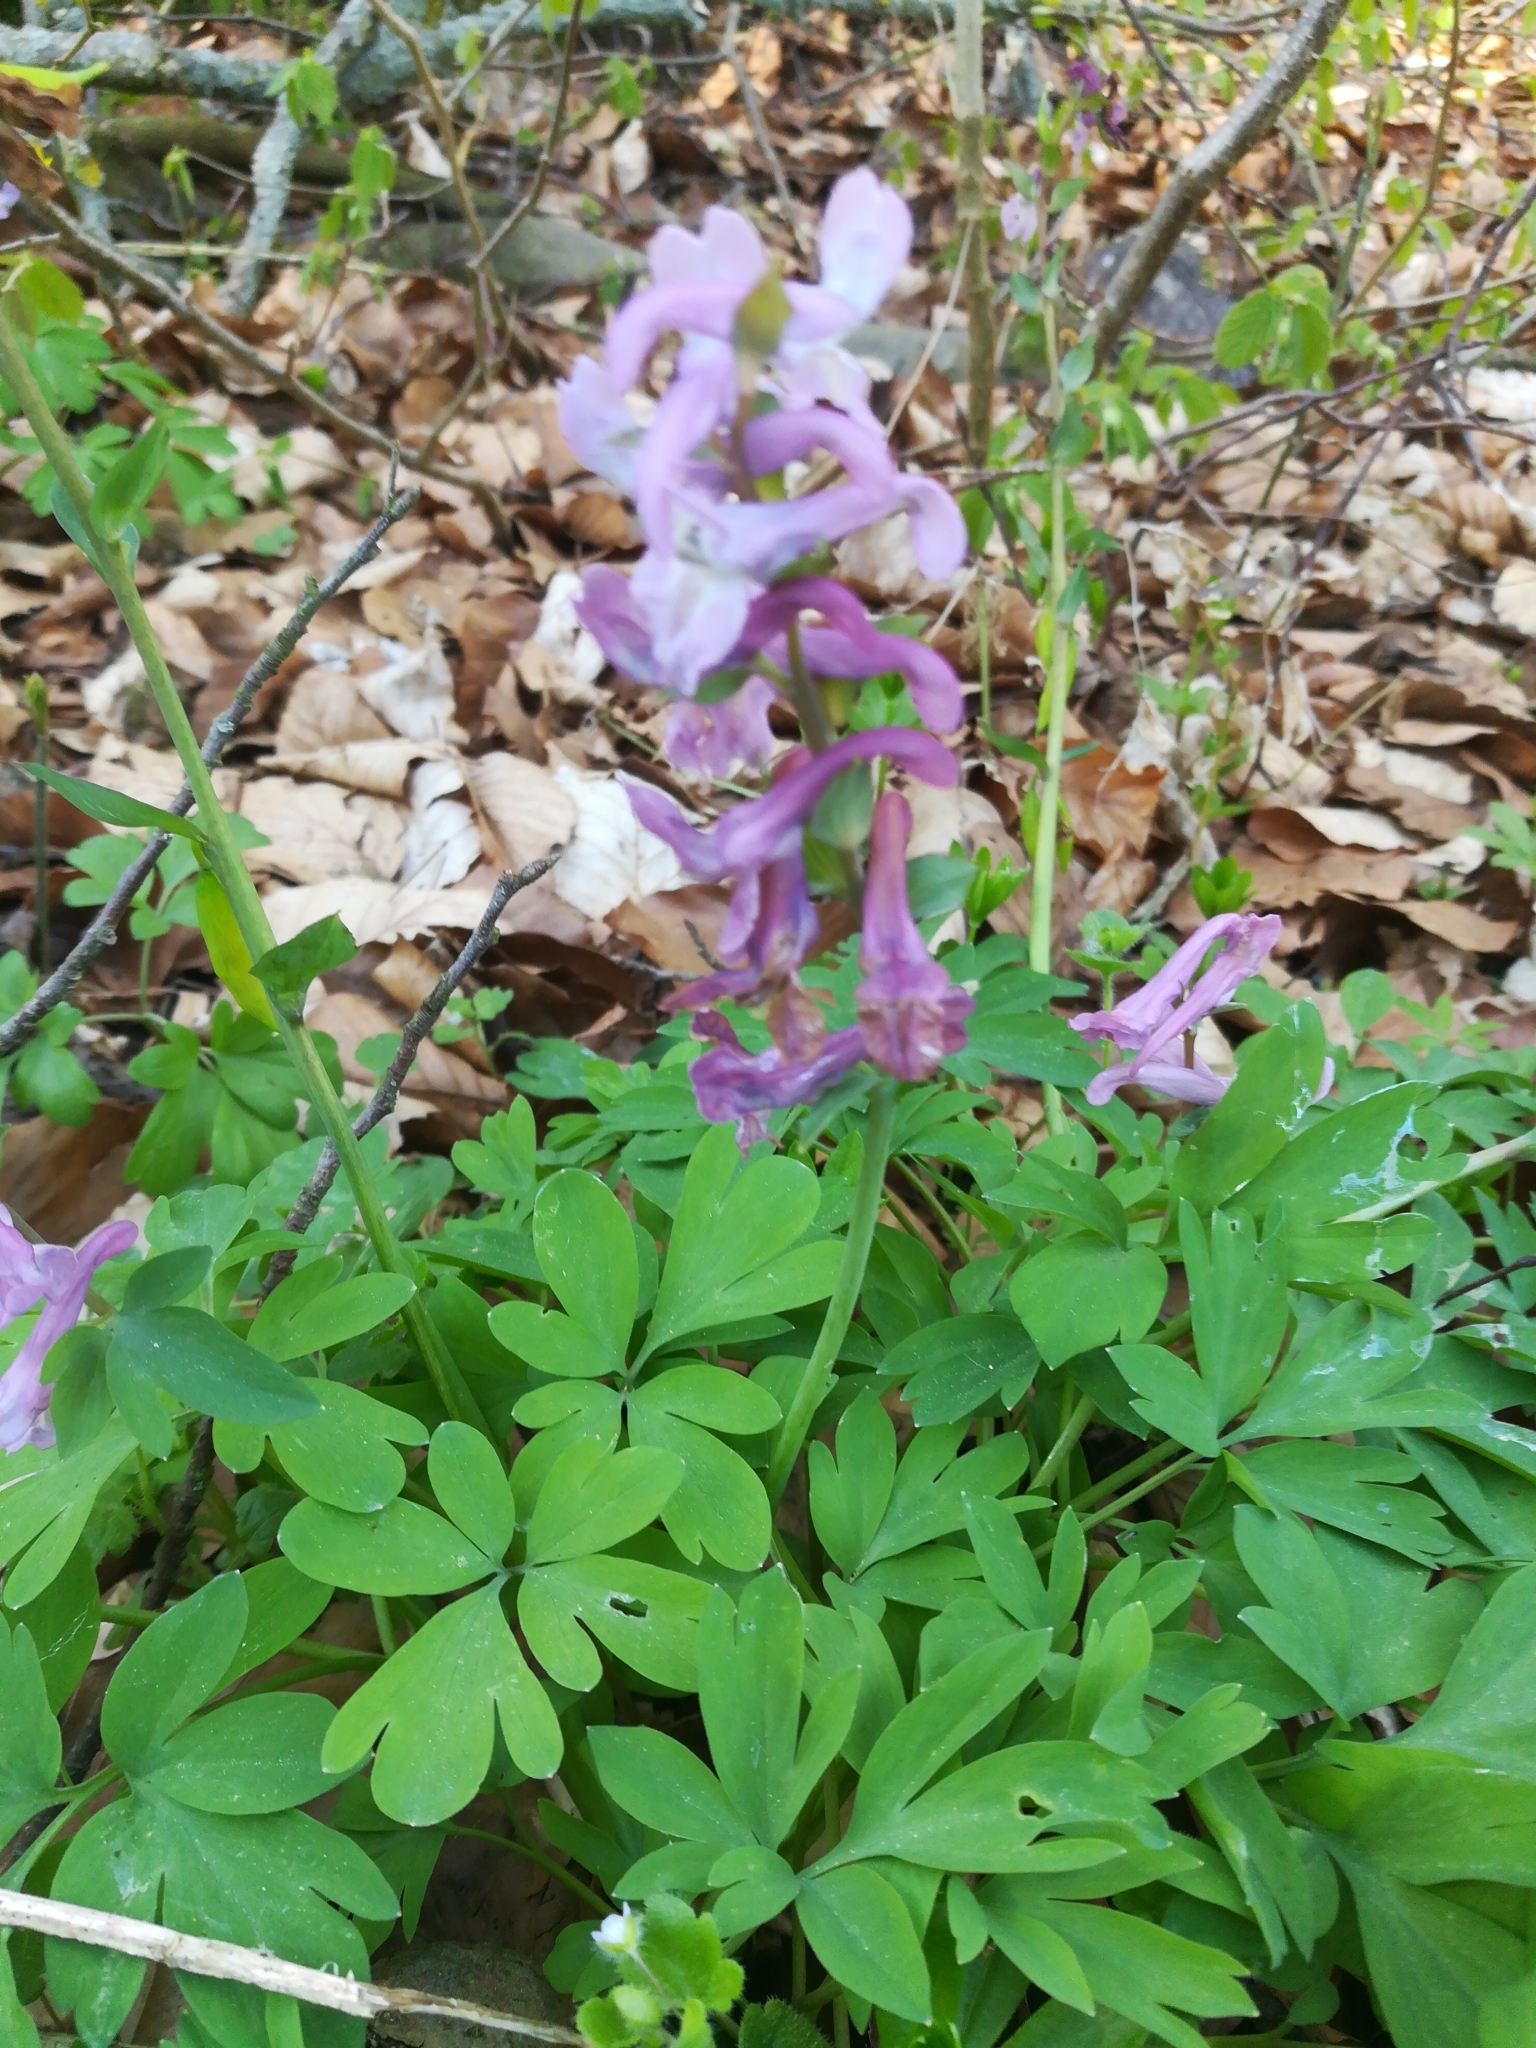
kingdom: Plantae
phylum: Tracheophyta
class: Magnoliopsida
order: Ranunculales
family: Papaveraceae
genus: Corydalis
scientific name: Corydalis cava
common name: Hollowroot
